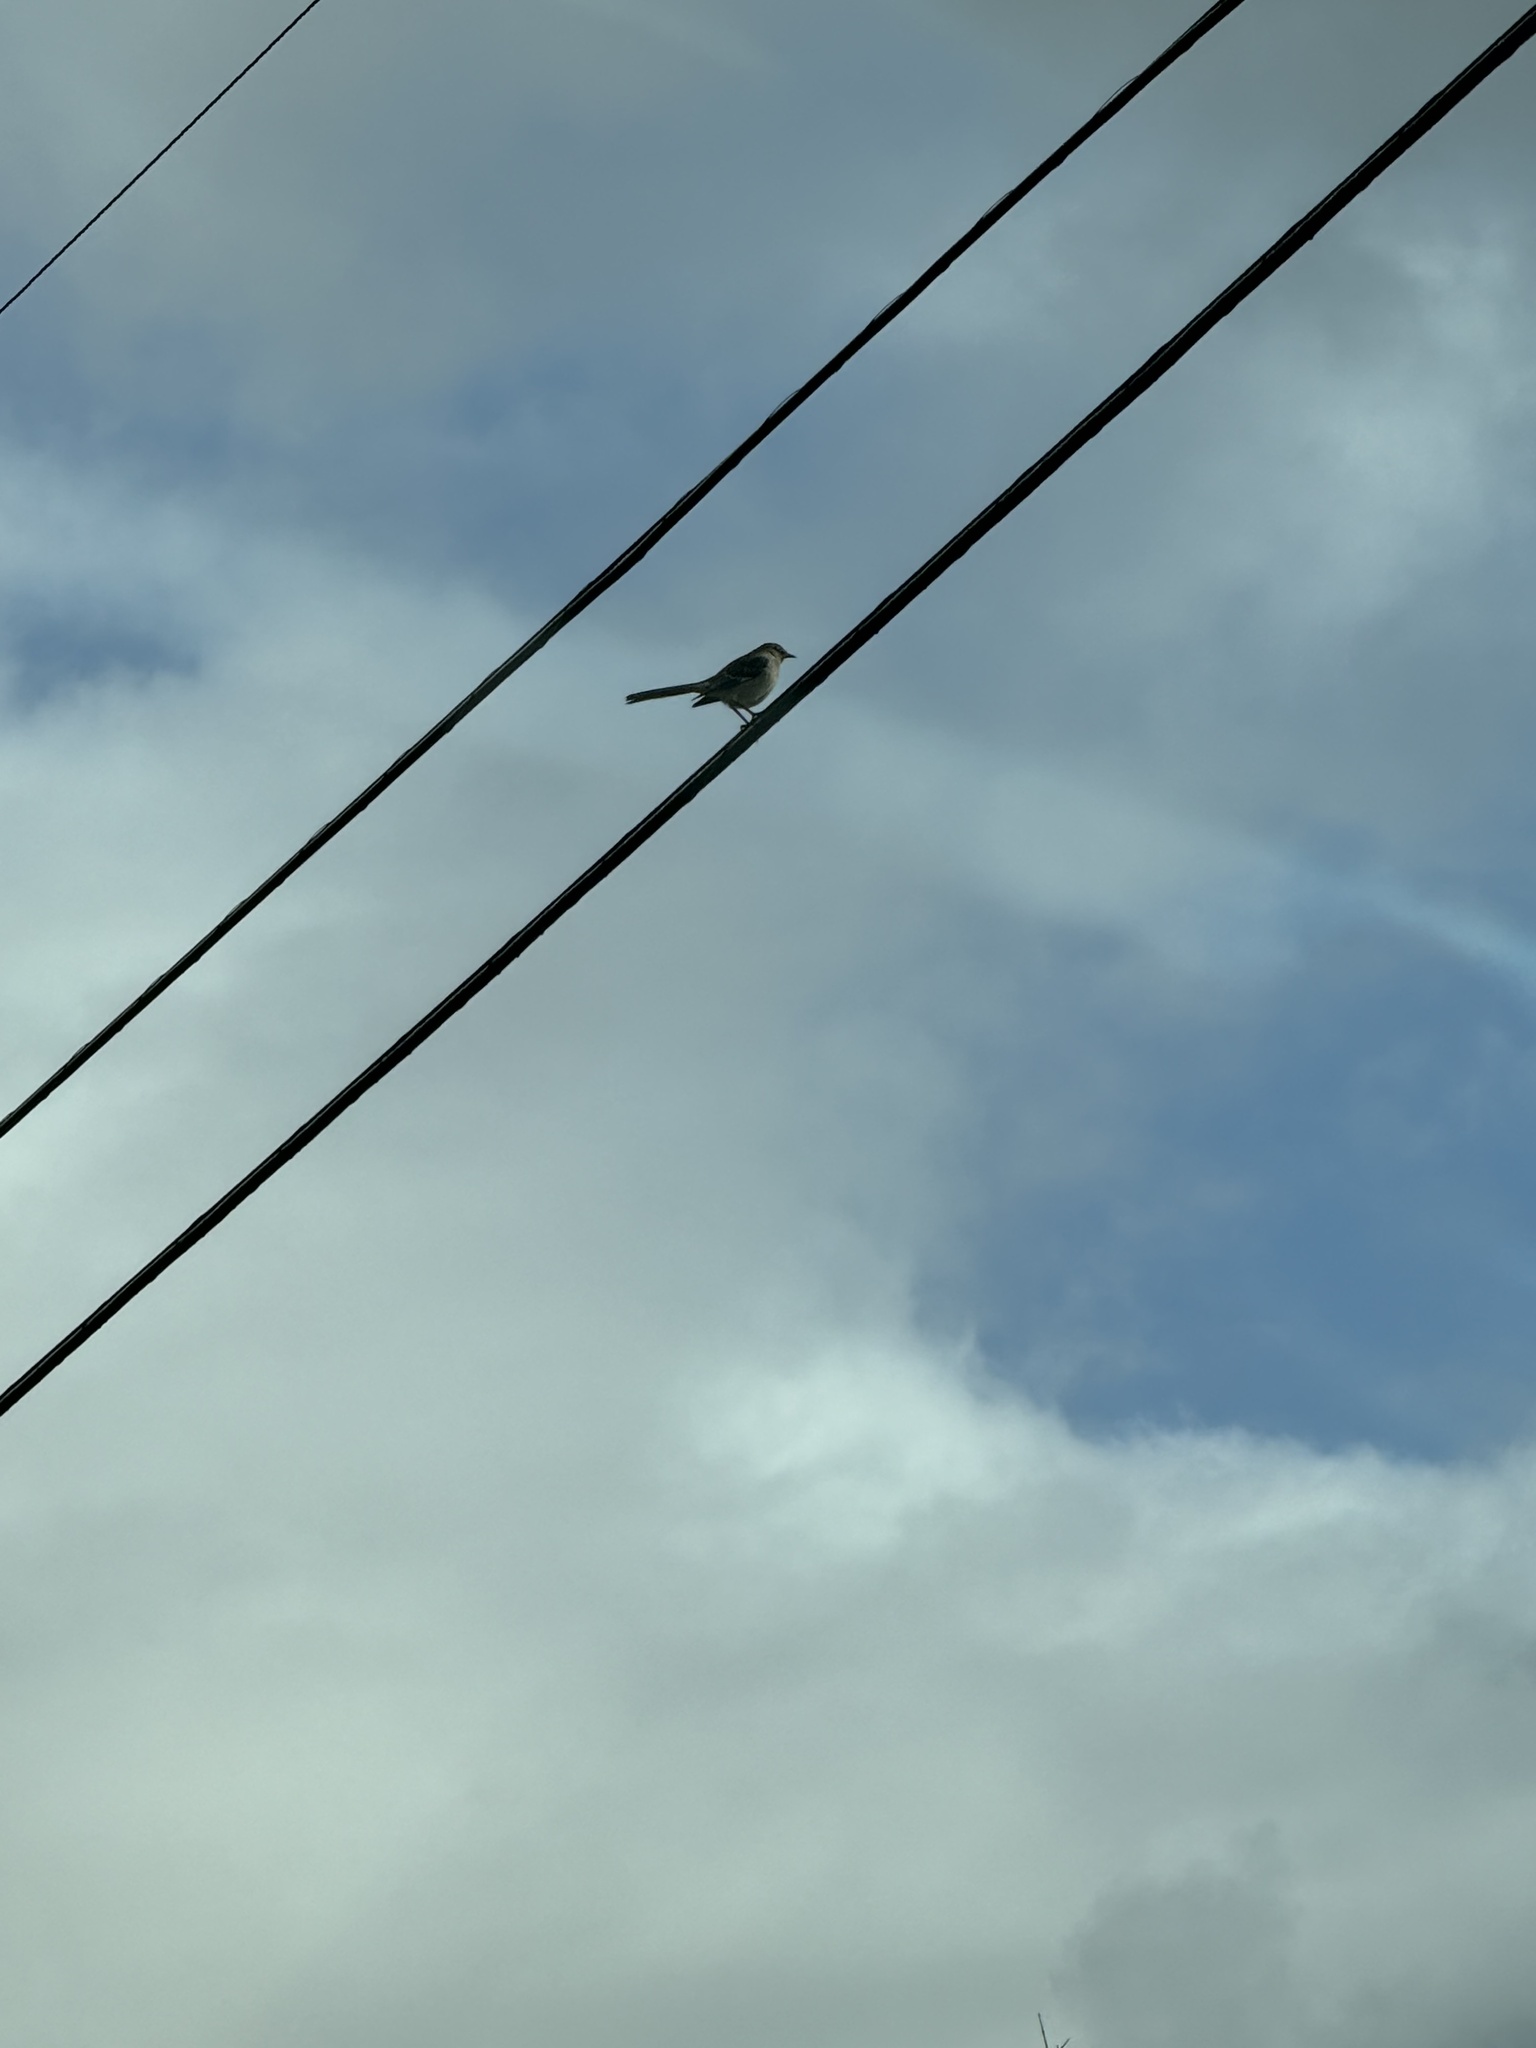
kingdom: Animalia
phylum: Chordata
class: Aves
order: Passeriformes
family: Mimidae
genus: Mimus
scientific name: Mimus polyglottos
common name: Northern mockingbird
